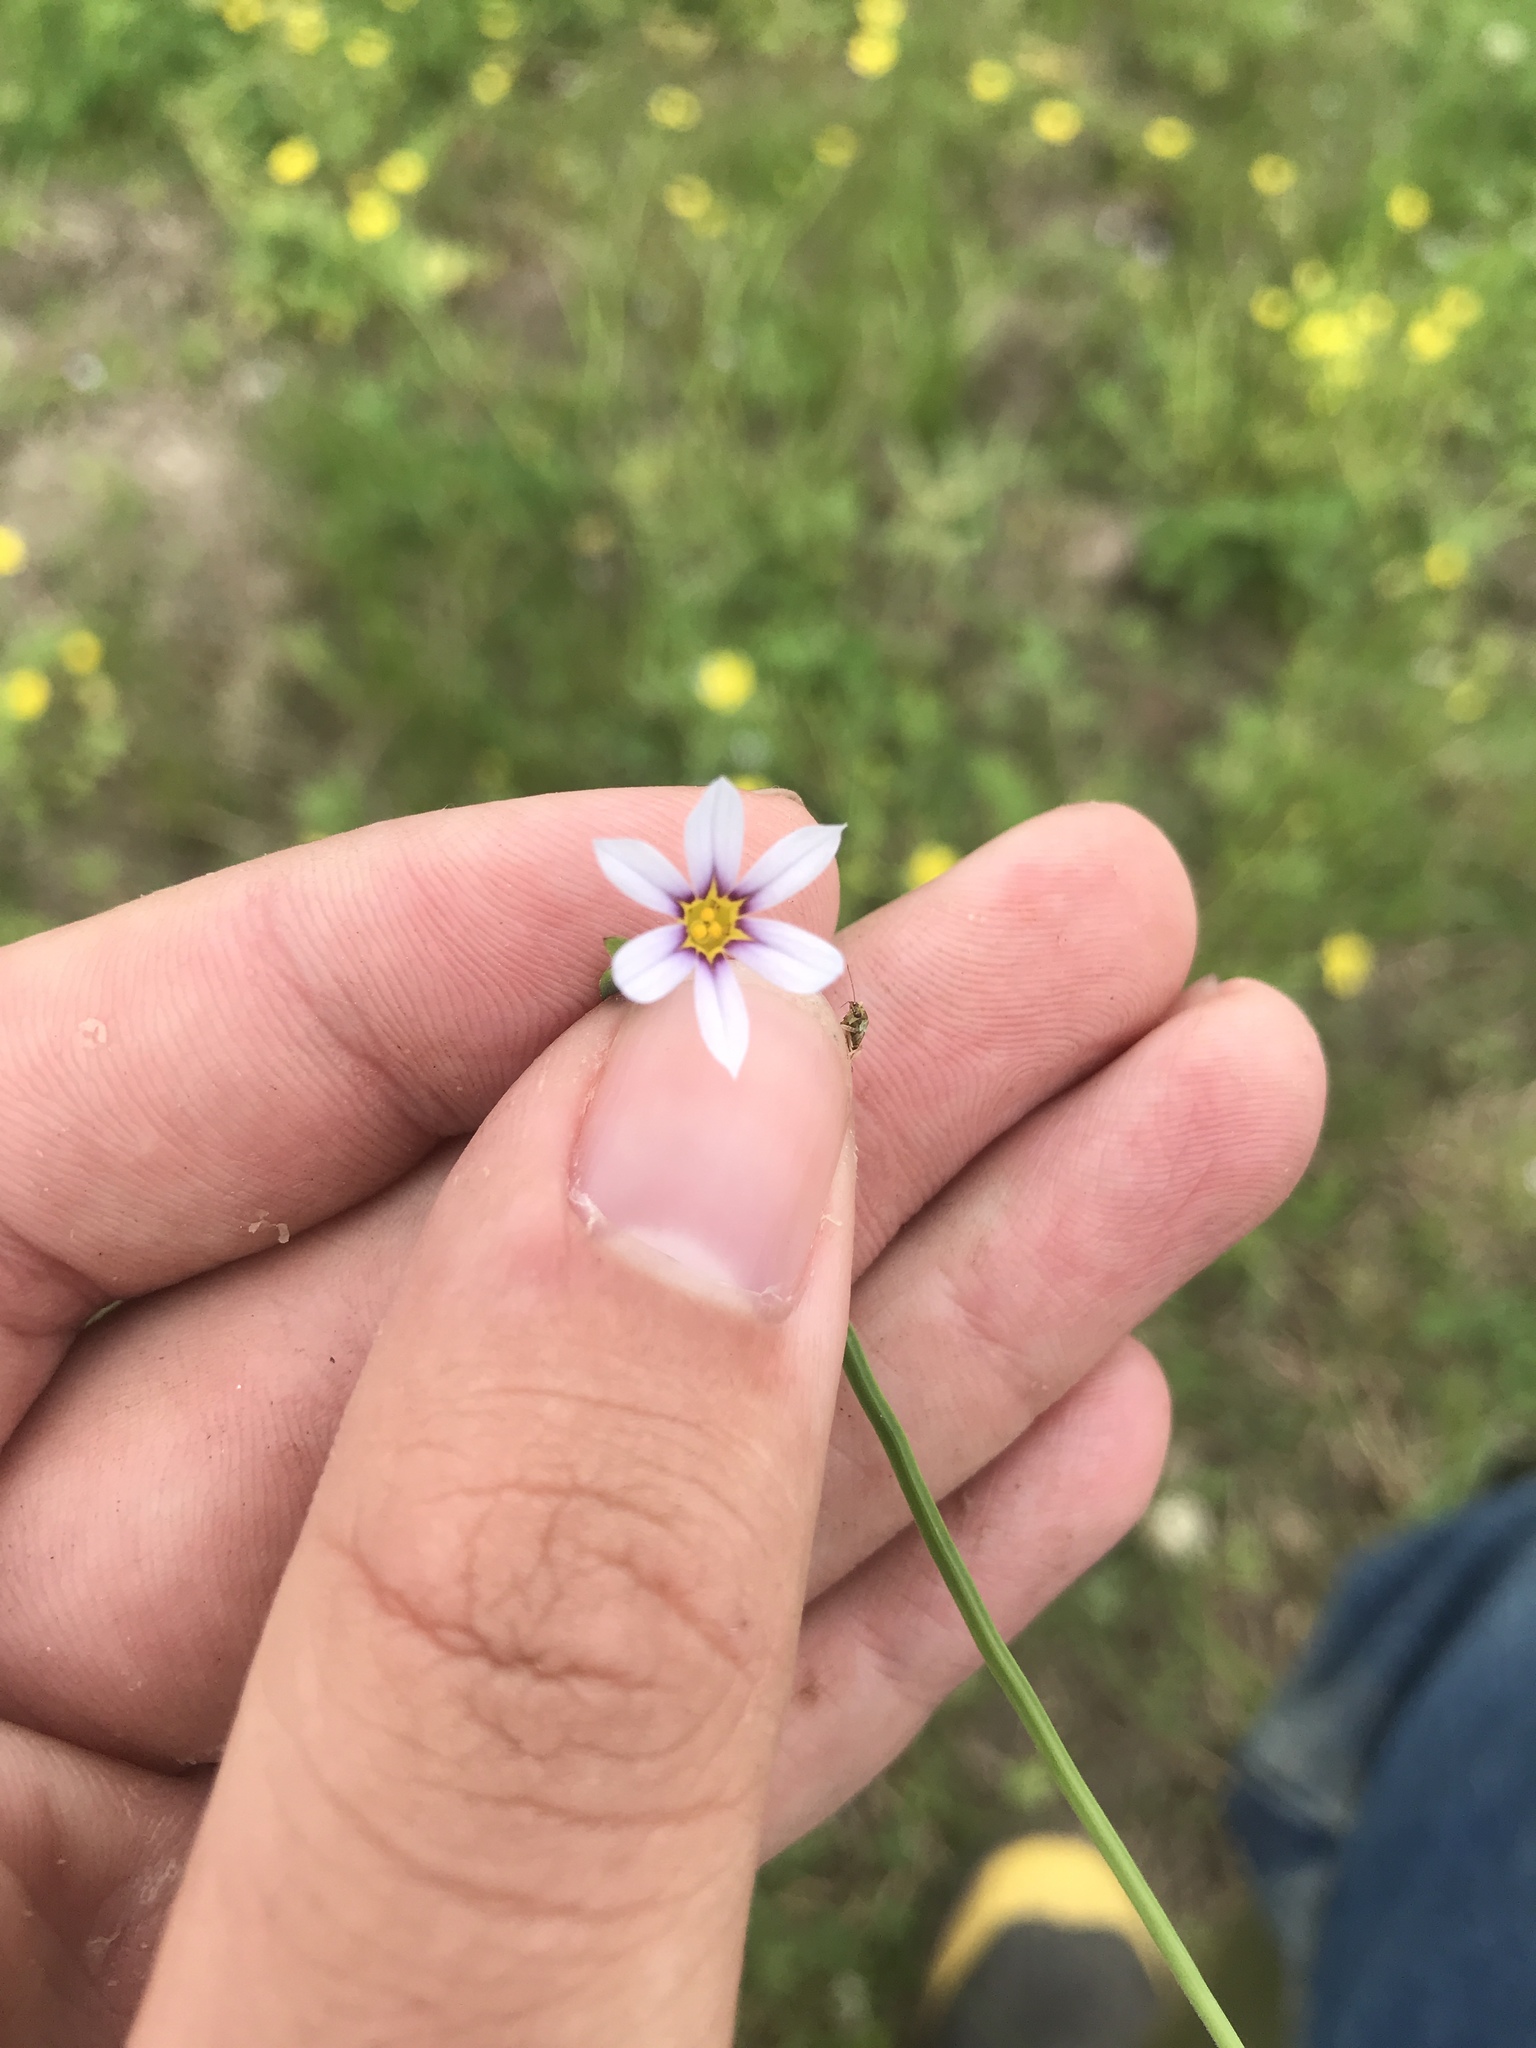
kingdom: Plantae
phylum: Tracheophyta
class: Liliopsida
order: Asparagales
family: Iridaceae
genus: Sisyrinchium
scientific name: Sisyrinchium micranthum
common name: Bermuda pigroot
